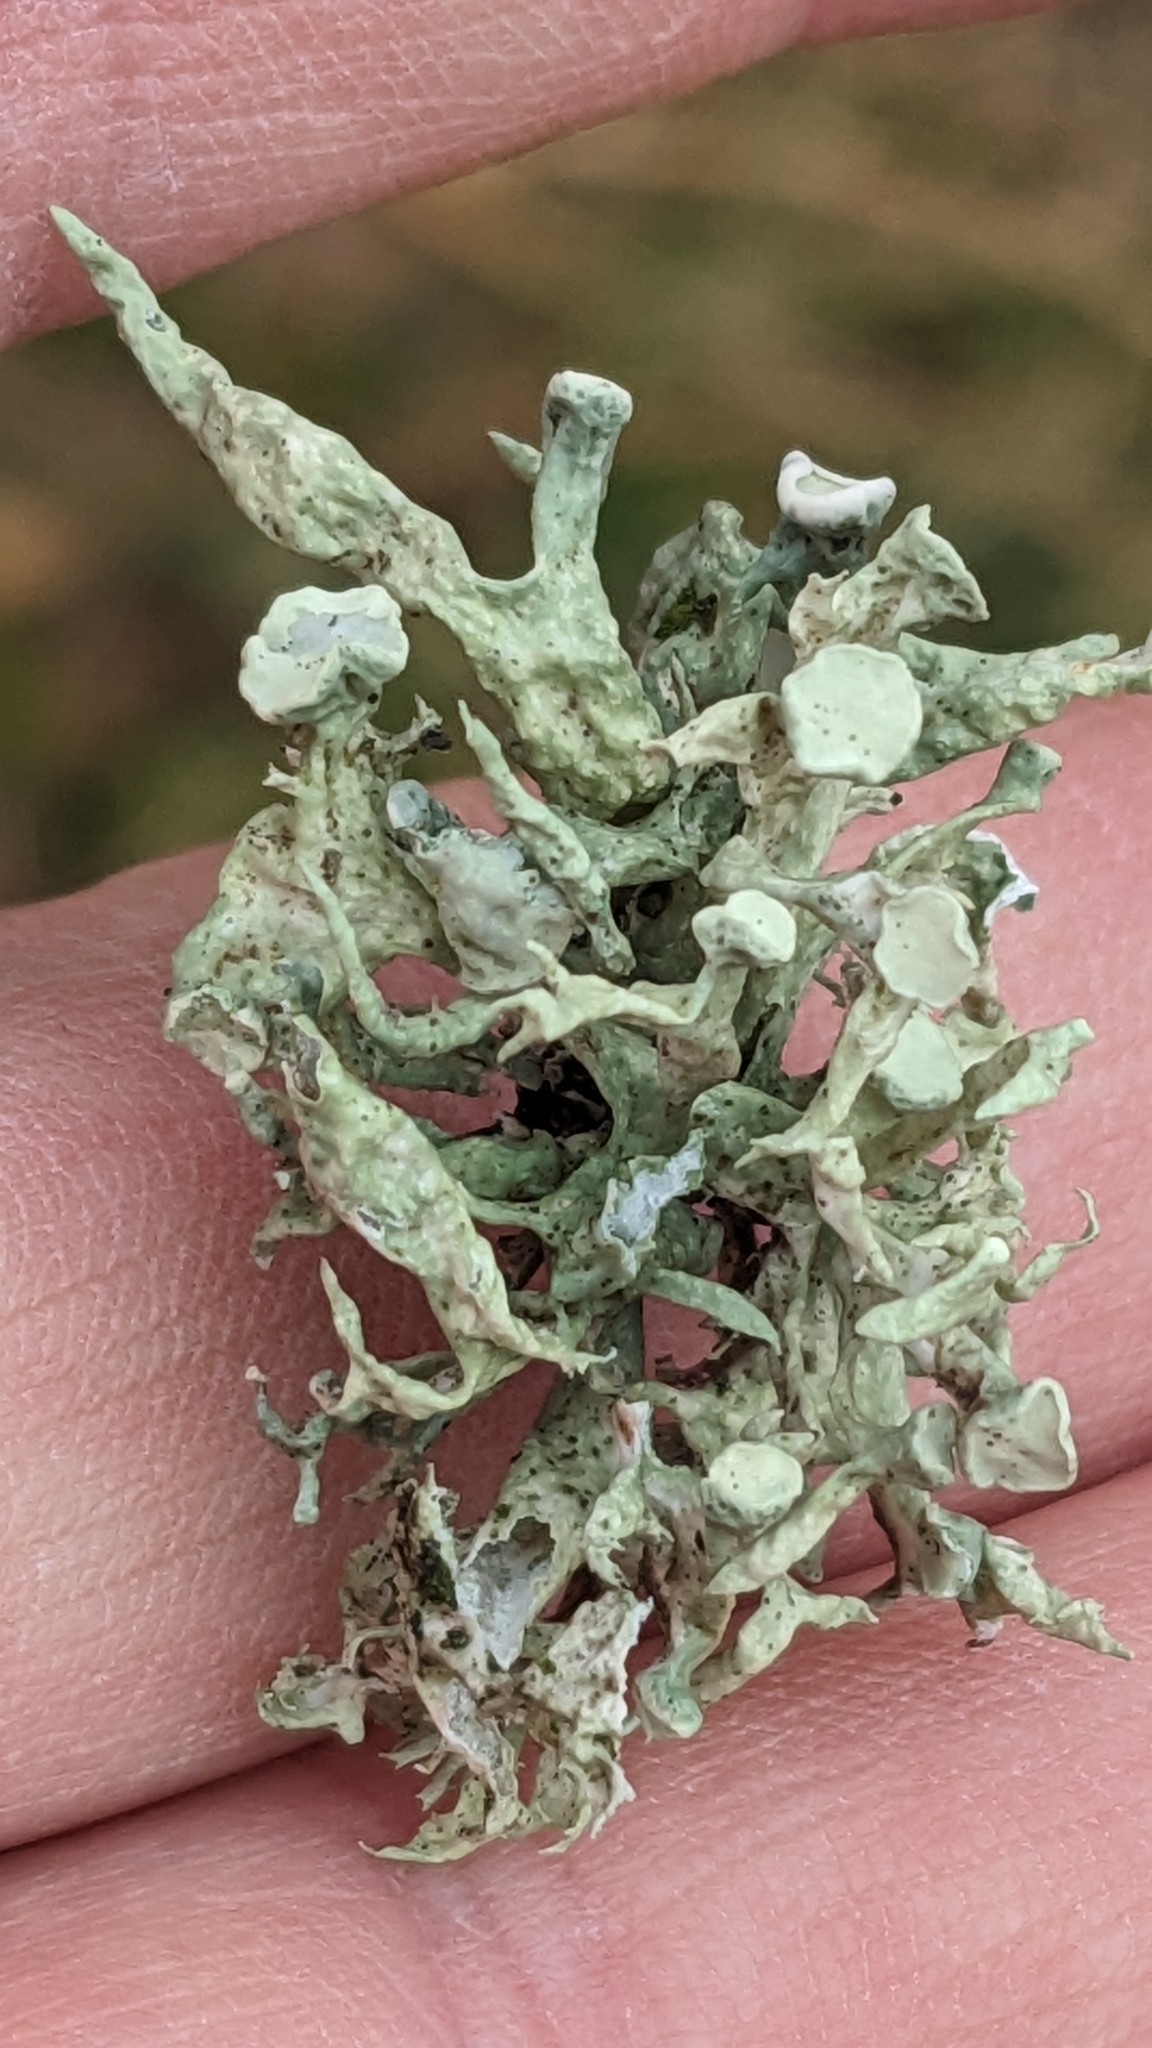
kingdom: Fungi
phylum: Ascomycota
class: Lecanoromycetes
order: Lecanorales
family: Ramalinaceae
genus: Ramalina
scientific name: Ramalina fastigiata
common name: Dotted ribbon lichen
